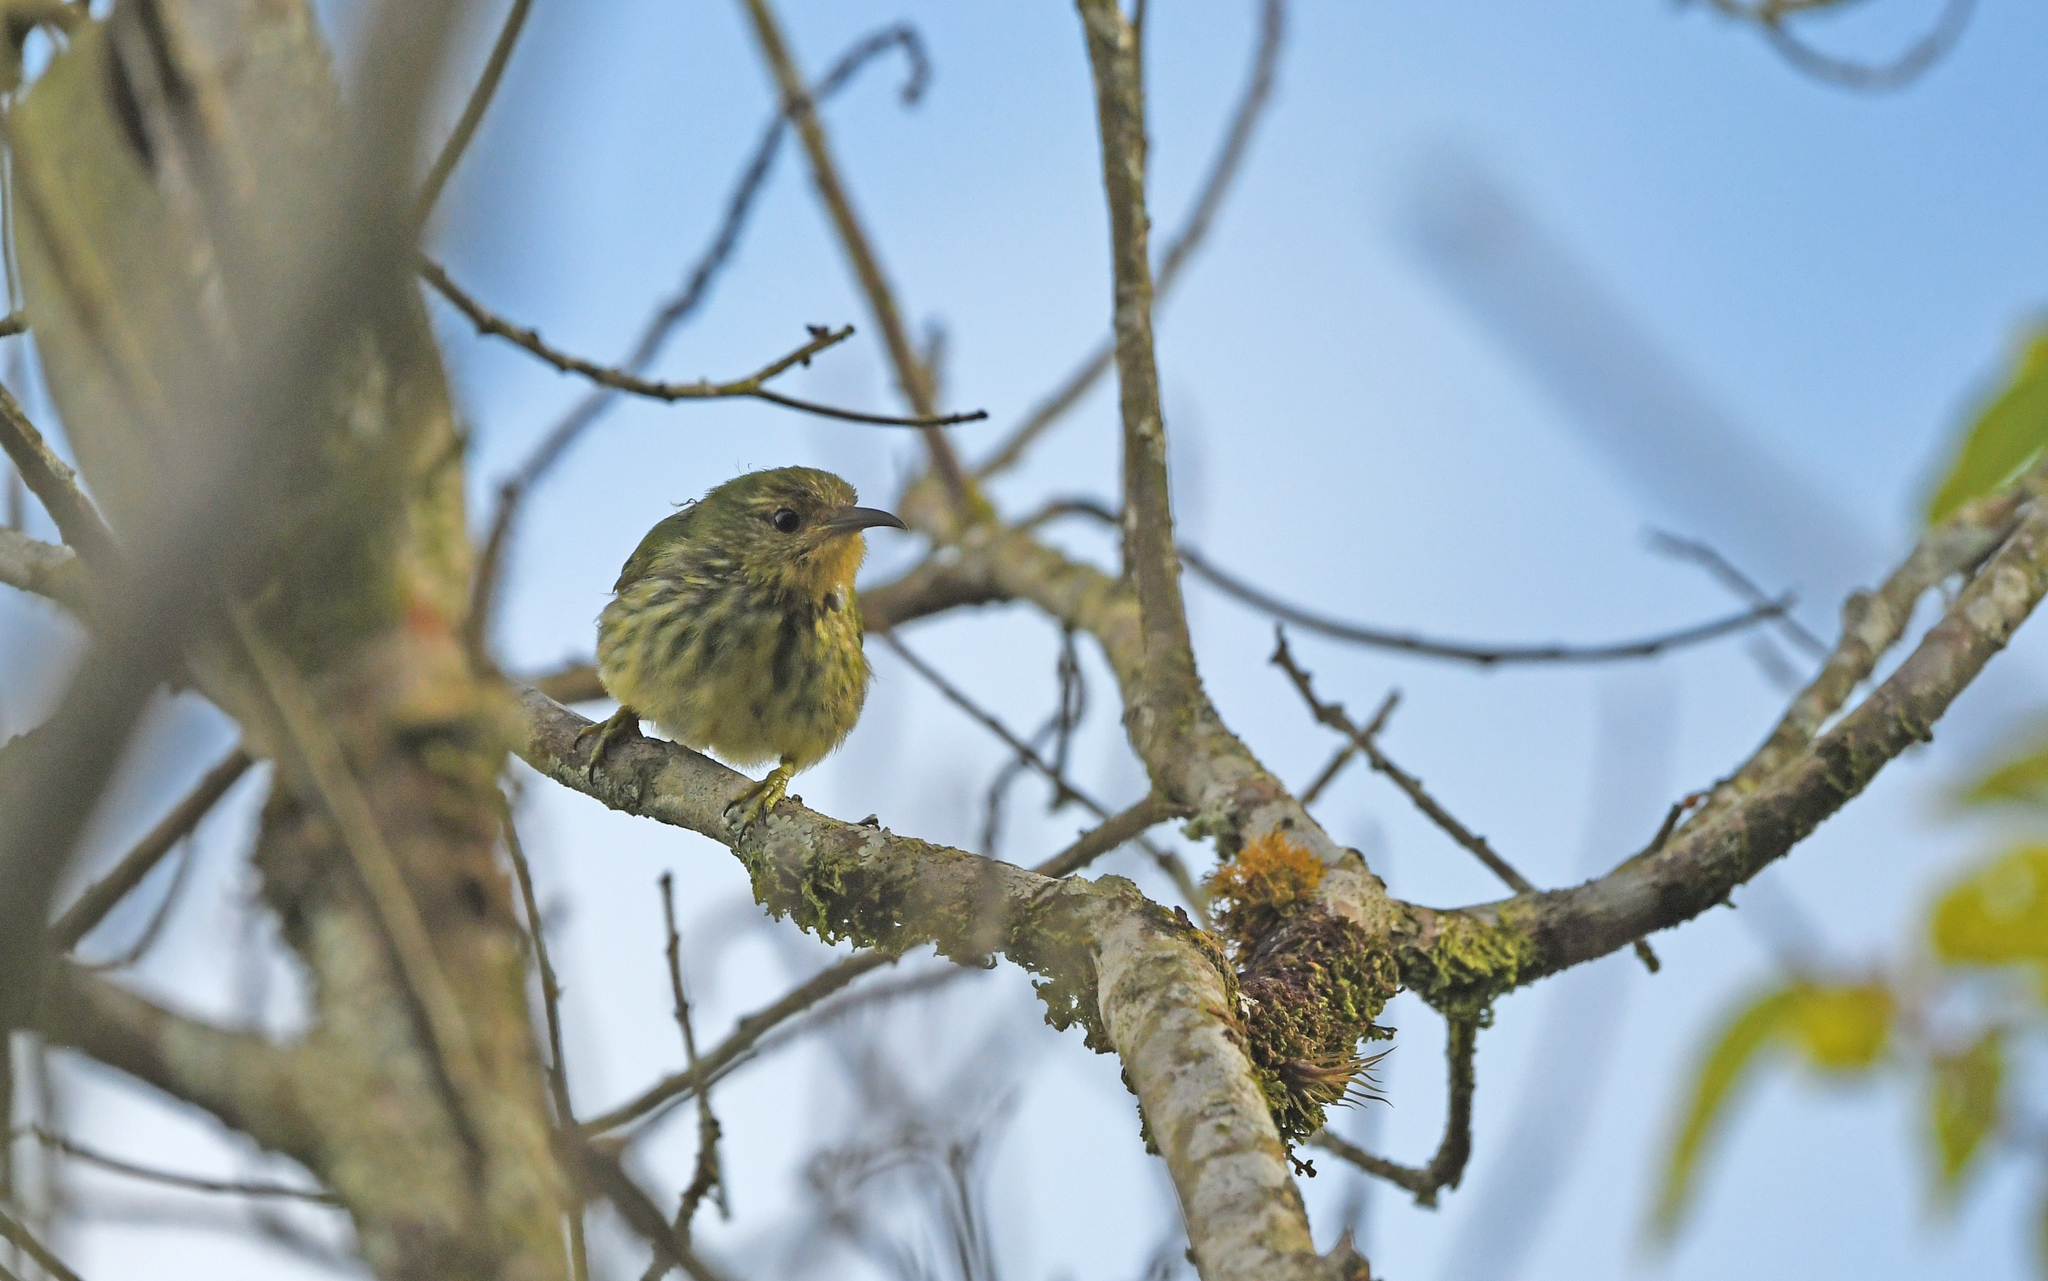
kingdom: Animalia
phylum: Chordata
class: Aves
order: Passeriformes
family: Thraupidae
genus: Cyanerpes
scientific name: Cyanerpes caeruleus
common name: Purple honeycreeper
